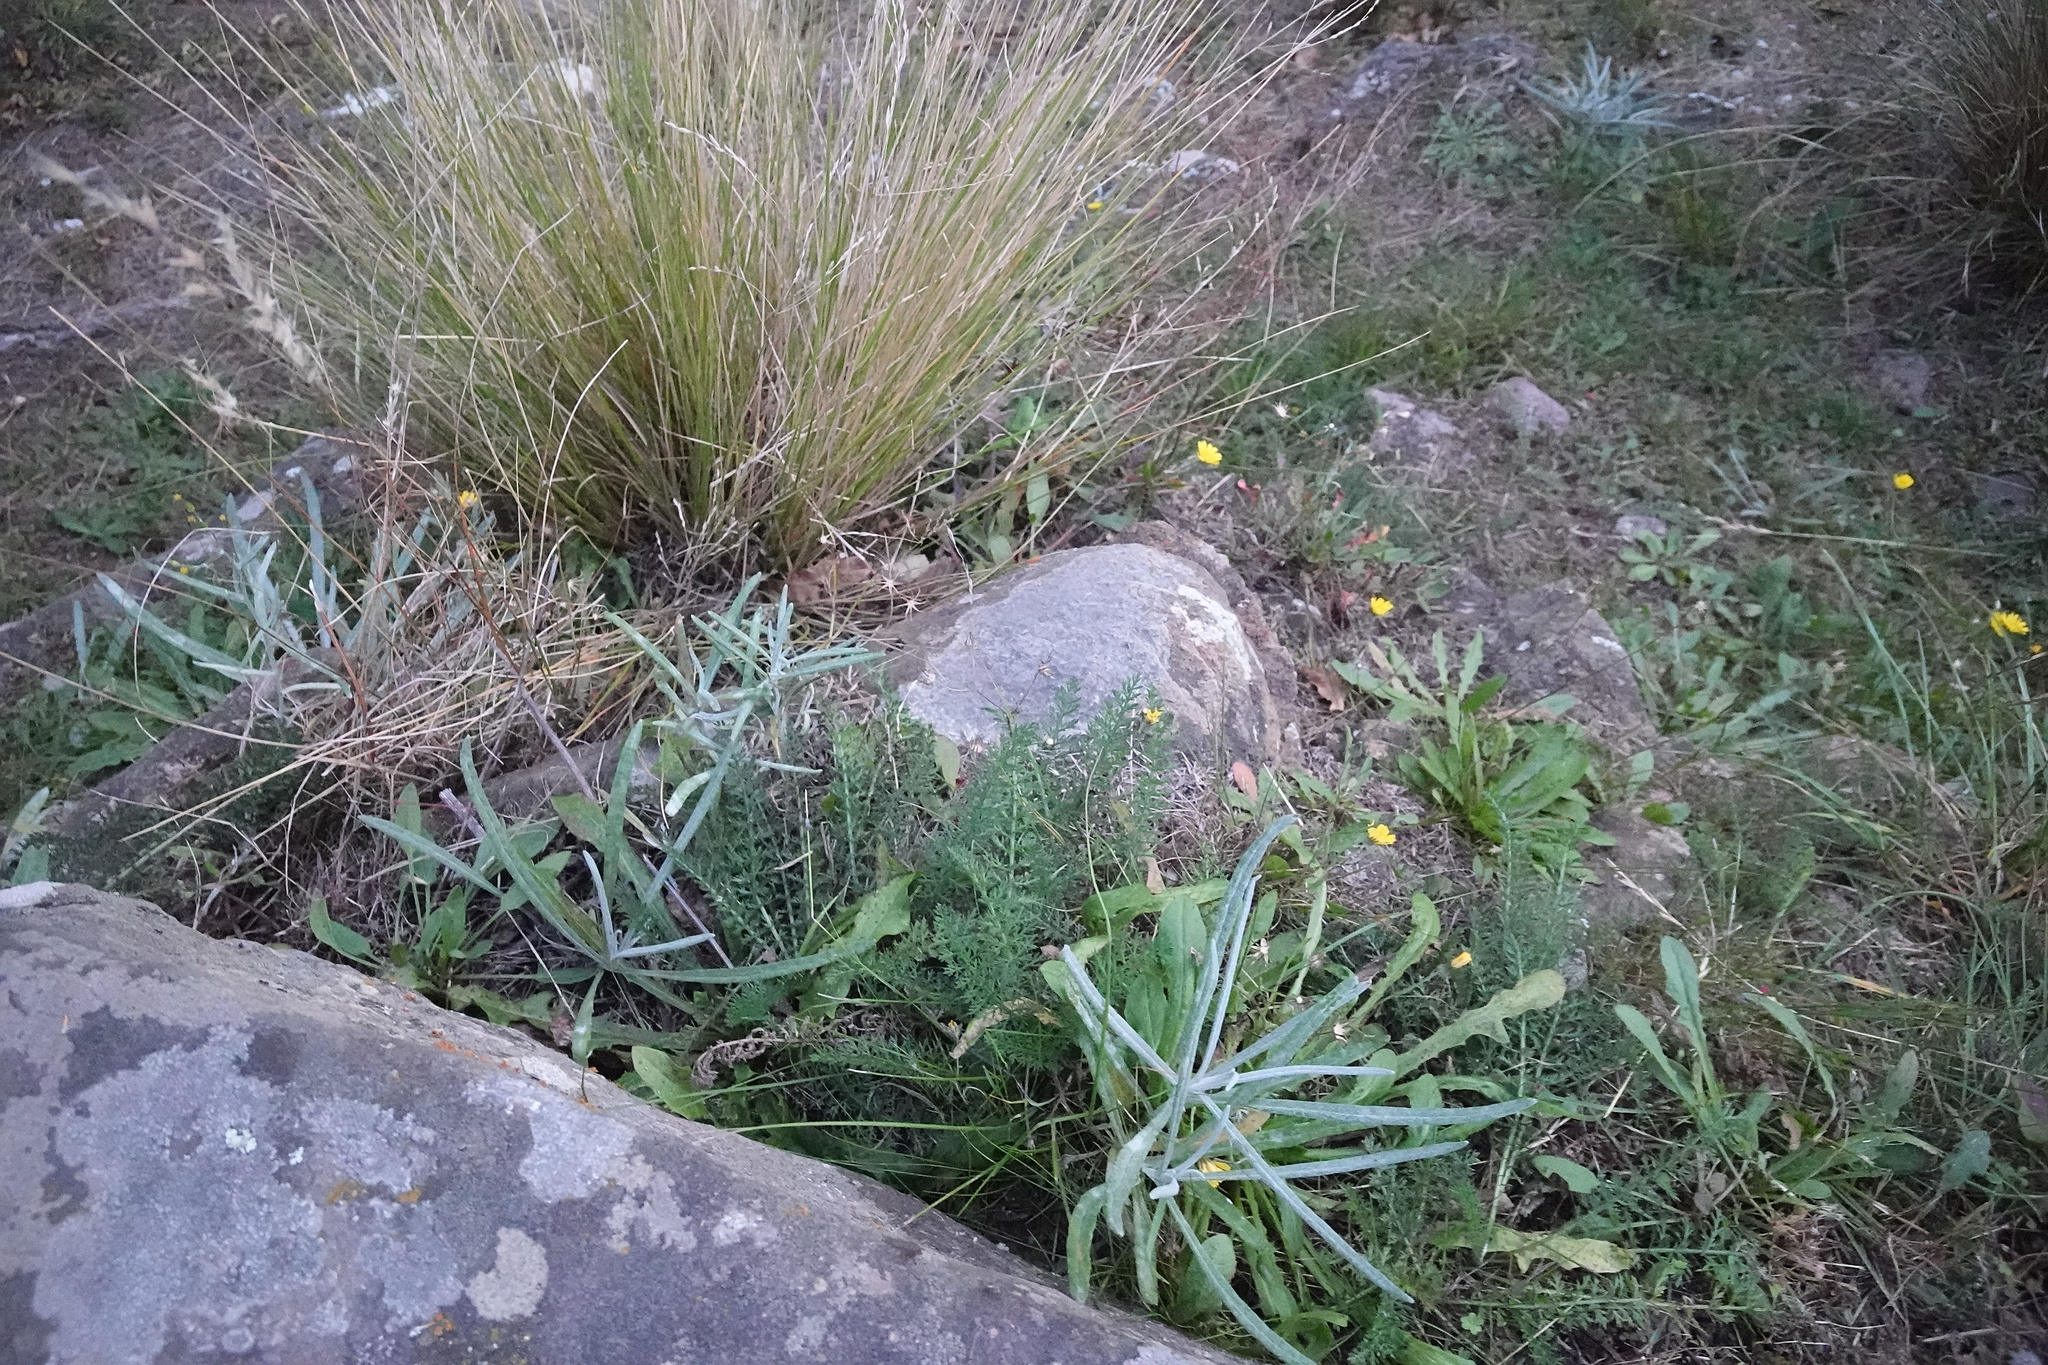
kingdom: Plantae
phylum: Tracheophyta
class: Magnoliopsida
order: Asterales
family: Asteraceae
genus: Senecio
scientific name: Senecio quadridentatus
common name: Cotton fireweed
